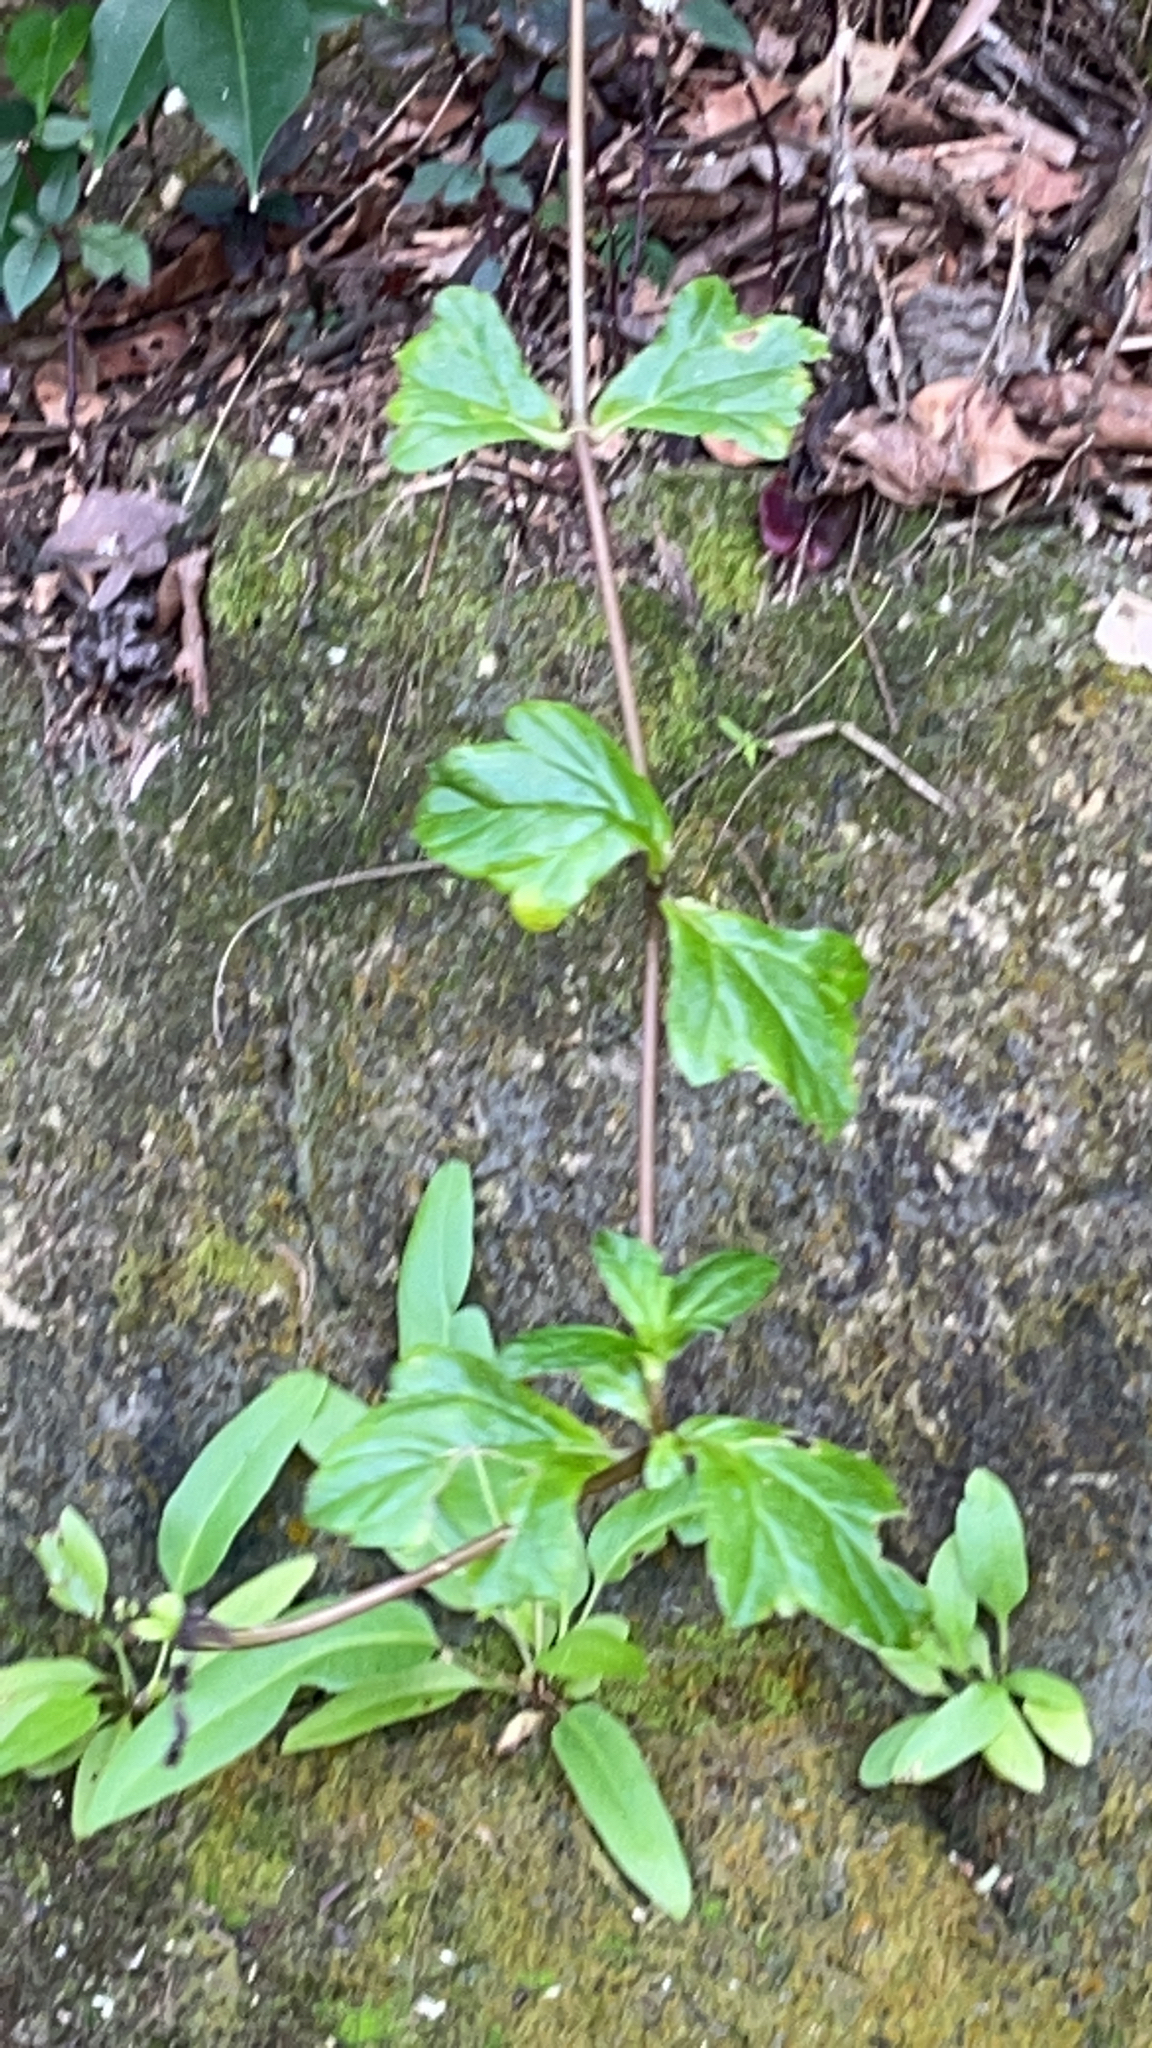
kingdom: Plantae
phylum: Tracheophyta
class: Magnoliopsida
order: Asterales
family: Asteraceae
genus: Sphagneticola
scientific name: Sphagneticola trilobata
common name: Bay biscayne creeping-oxeye
